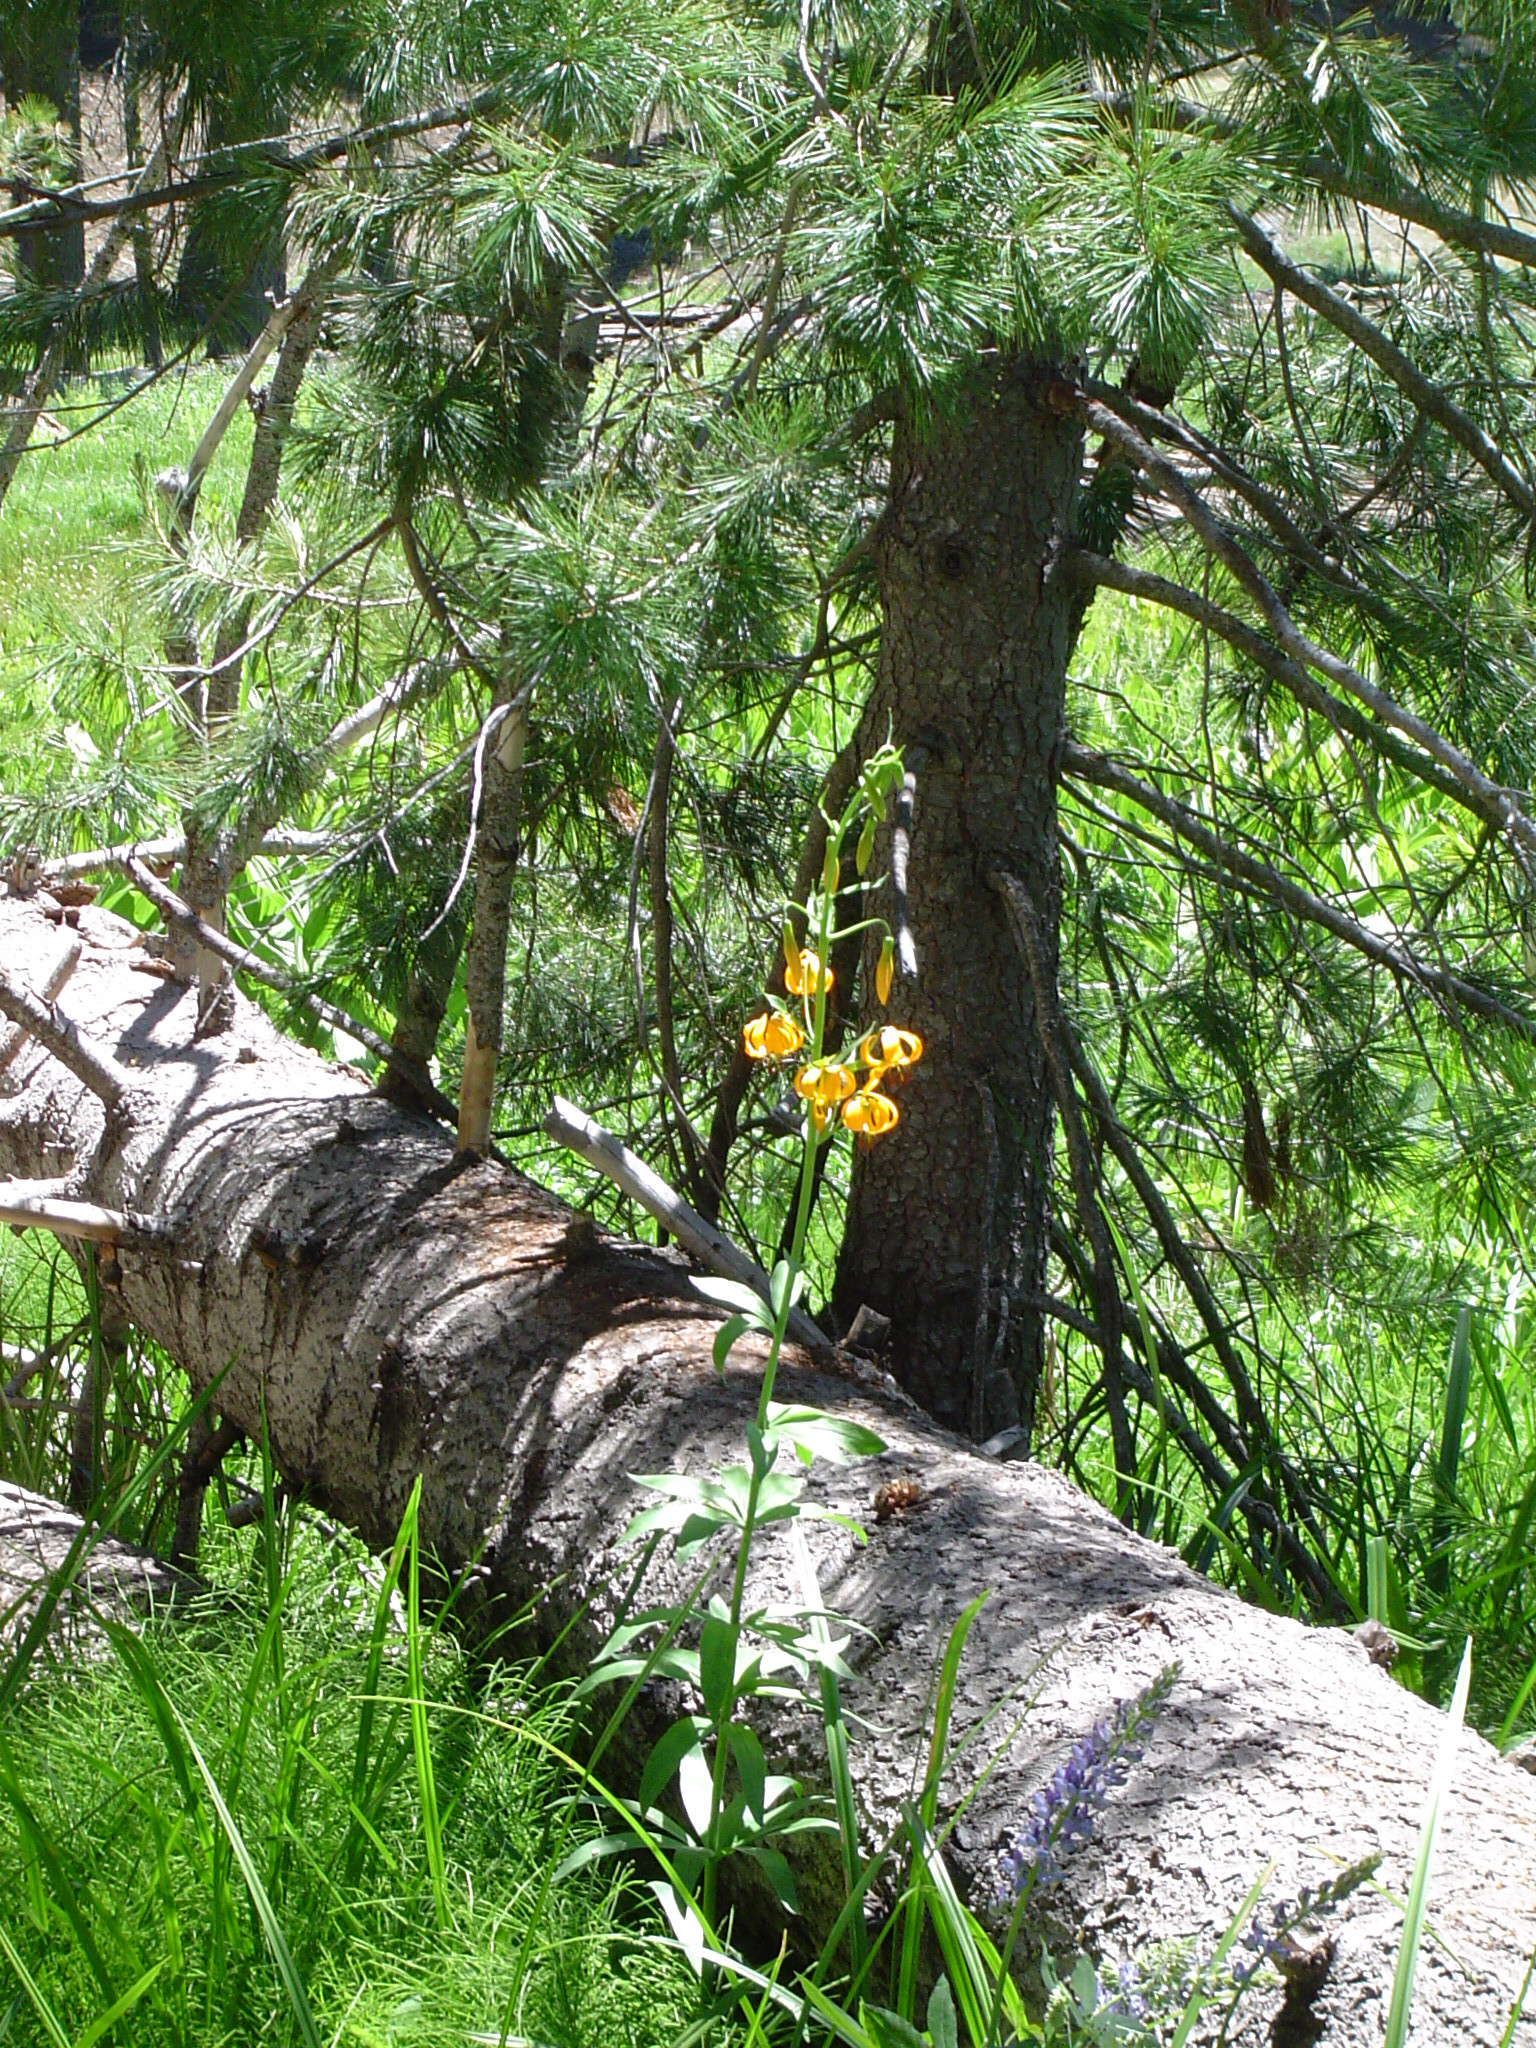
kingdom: Plantae
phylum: Tracheophyta
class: Liliopsida
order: Liliales
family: Liliaceae
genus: Lilium
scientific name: Lilium kelleyanum
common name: Kelley's lily
